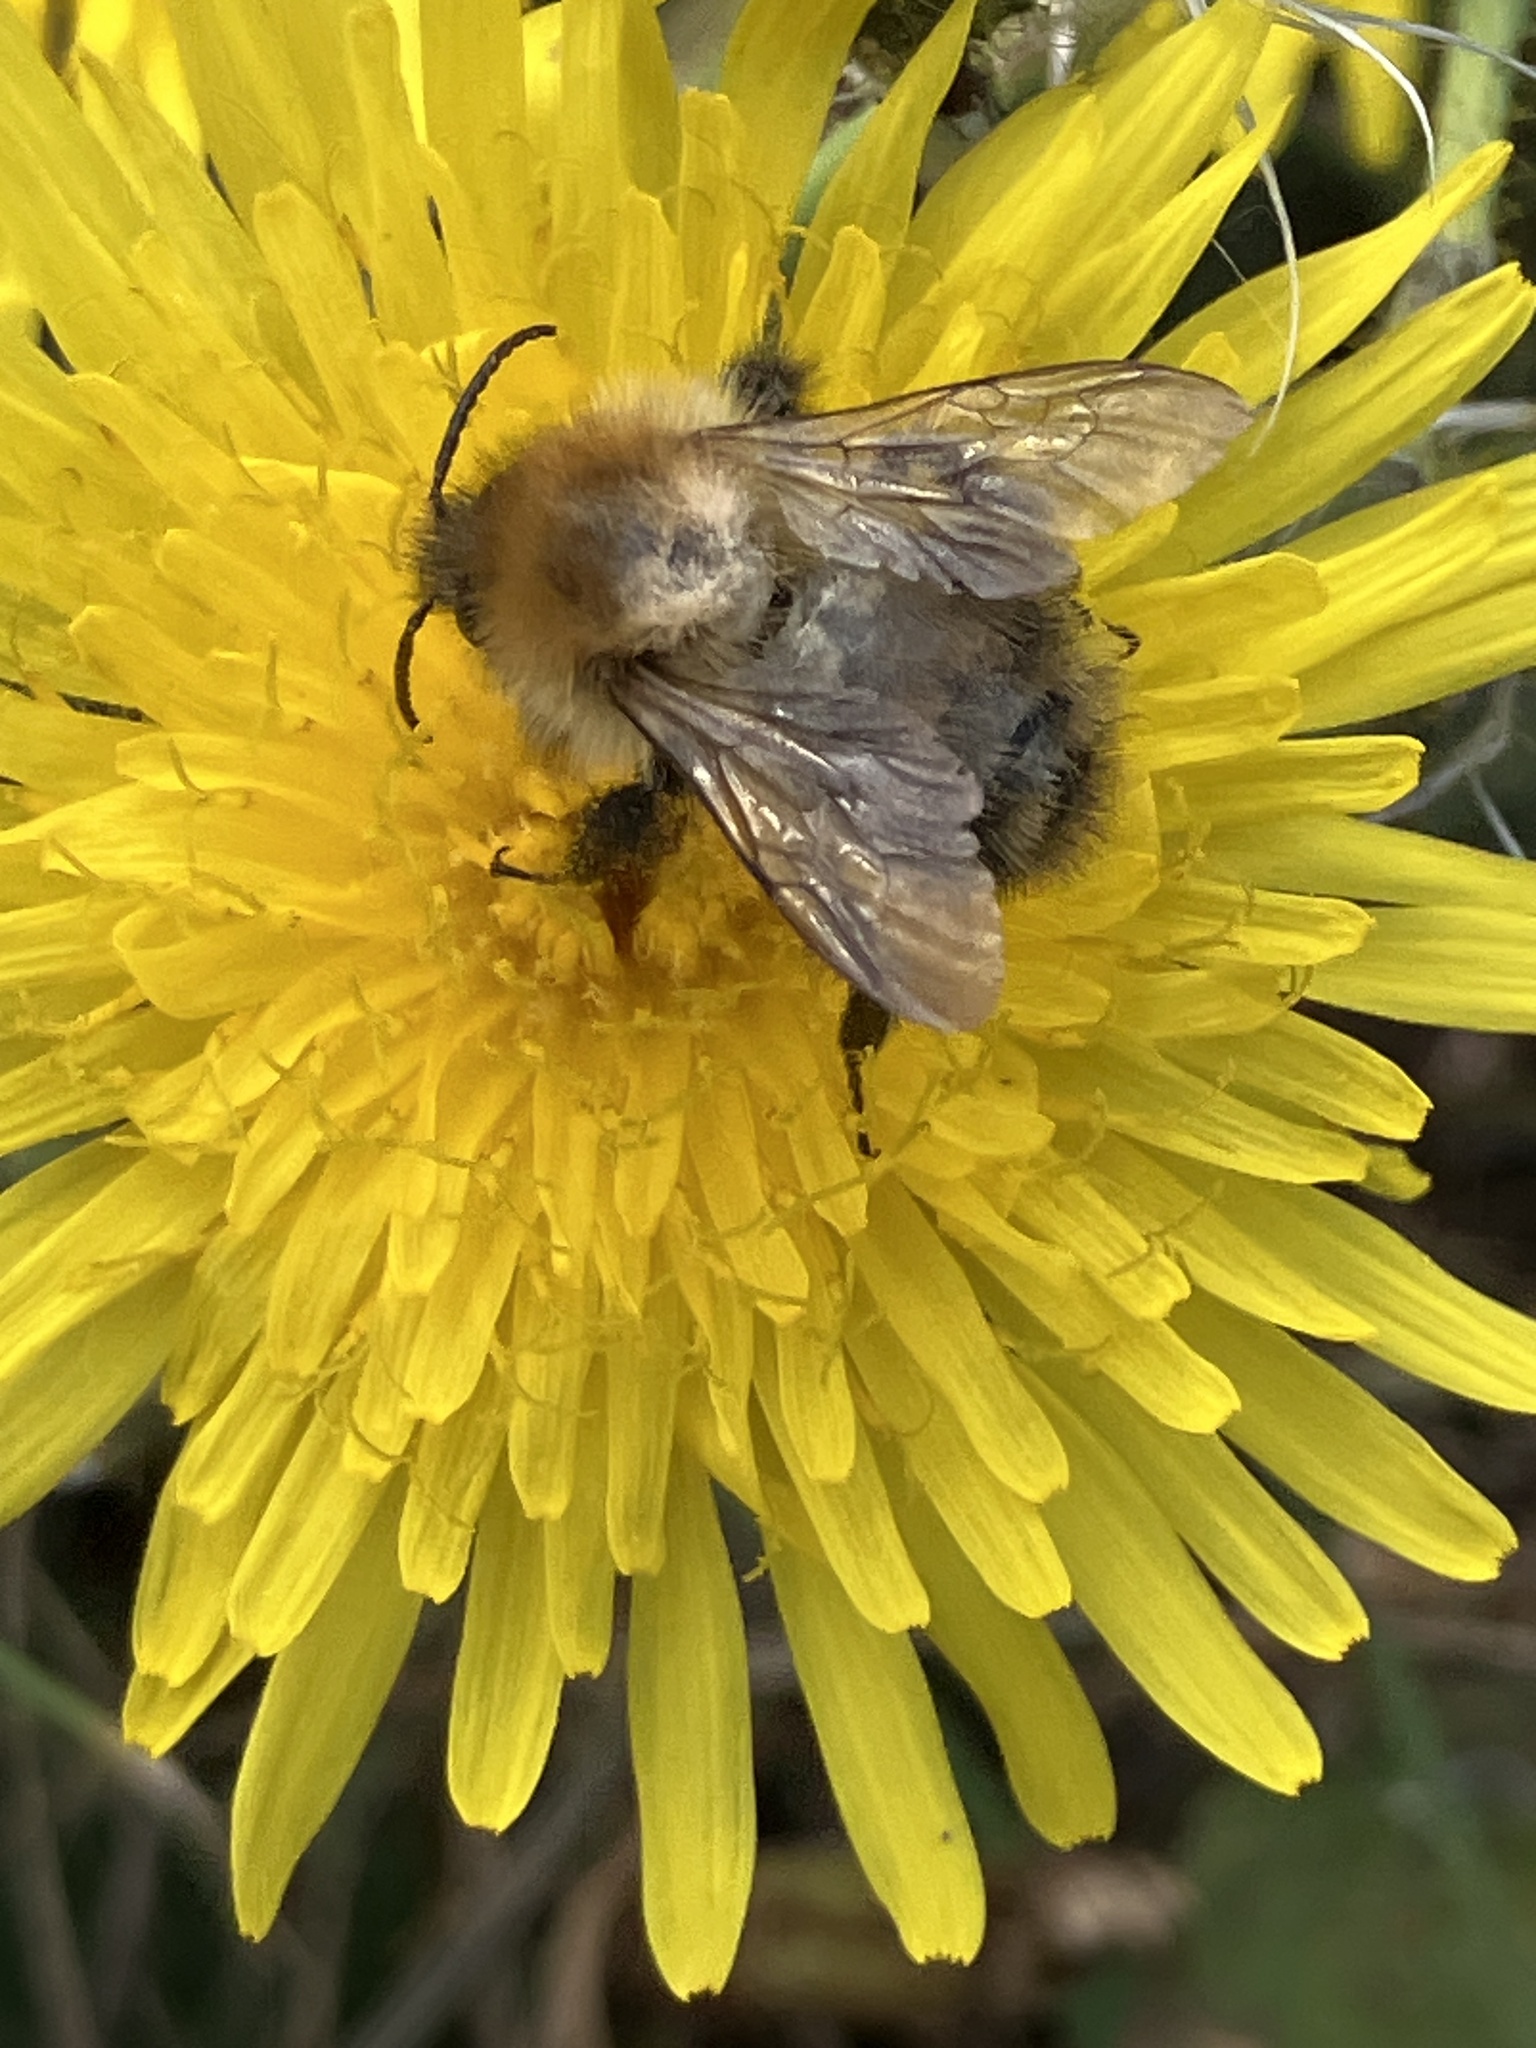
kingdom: Animalia
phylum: Arthropoda
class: Insecta
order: Hymenoptera
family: Apidae
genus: Bombus
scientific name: Bombus pascuorum
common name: Common carder bee
